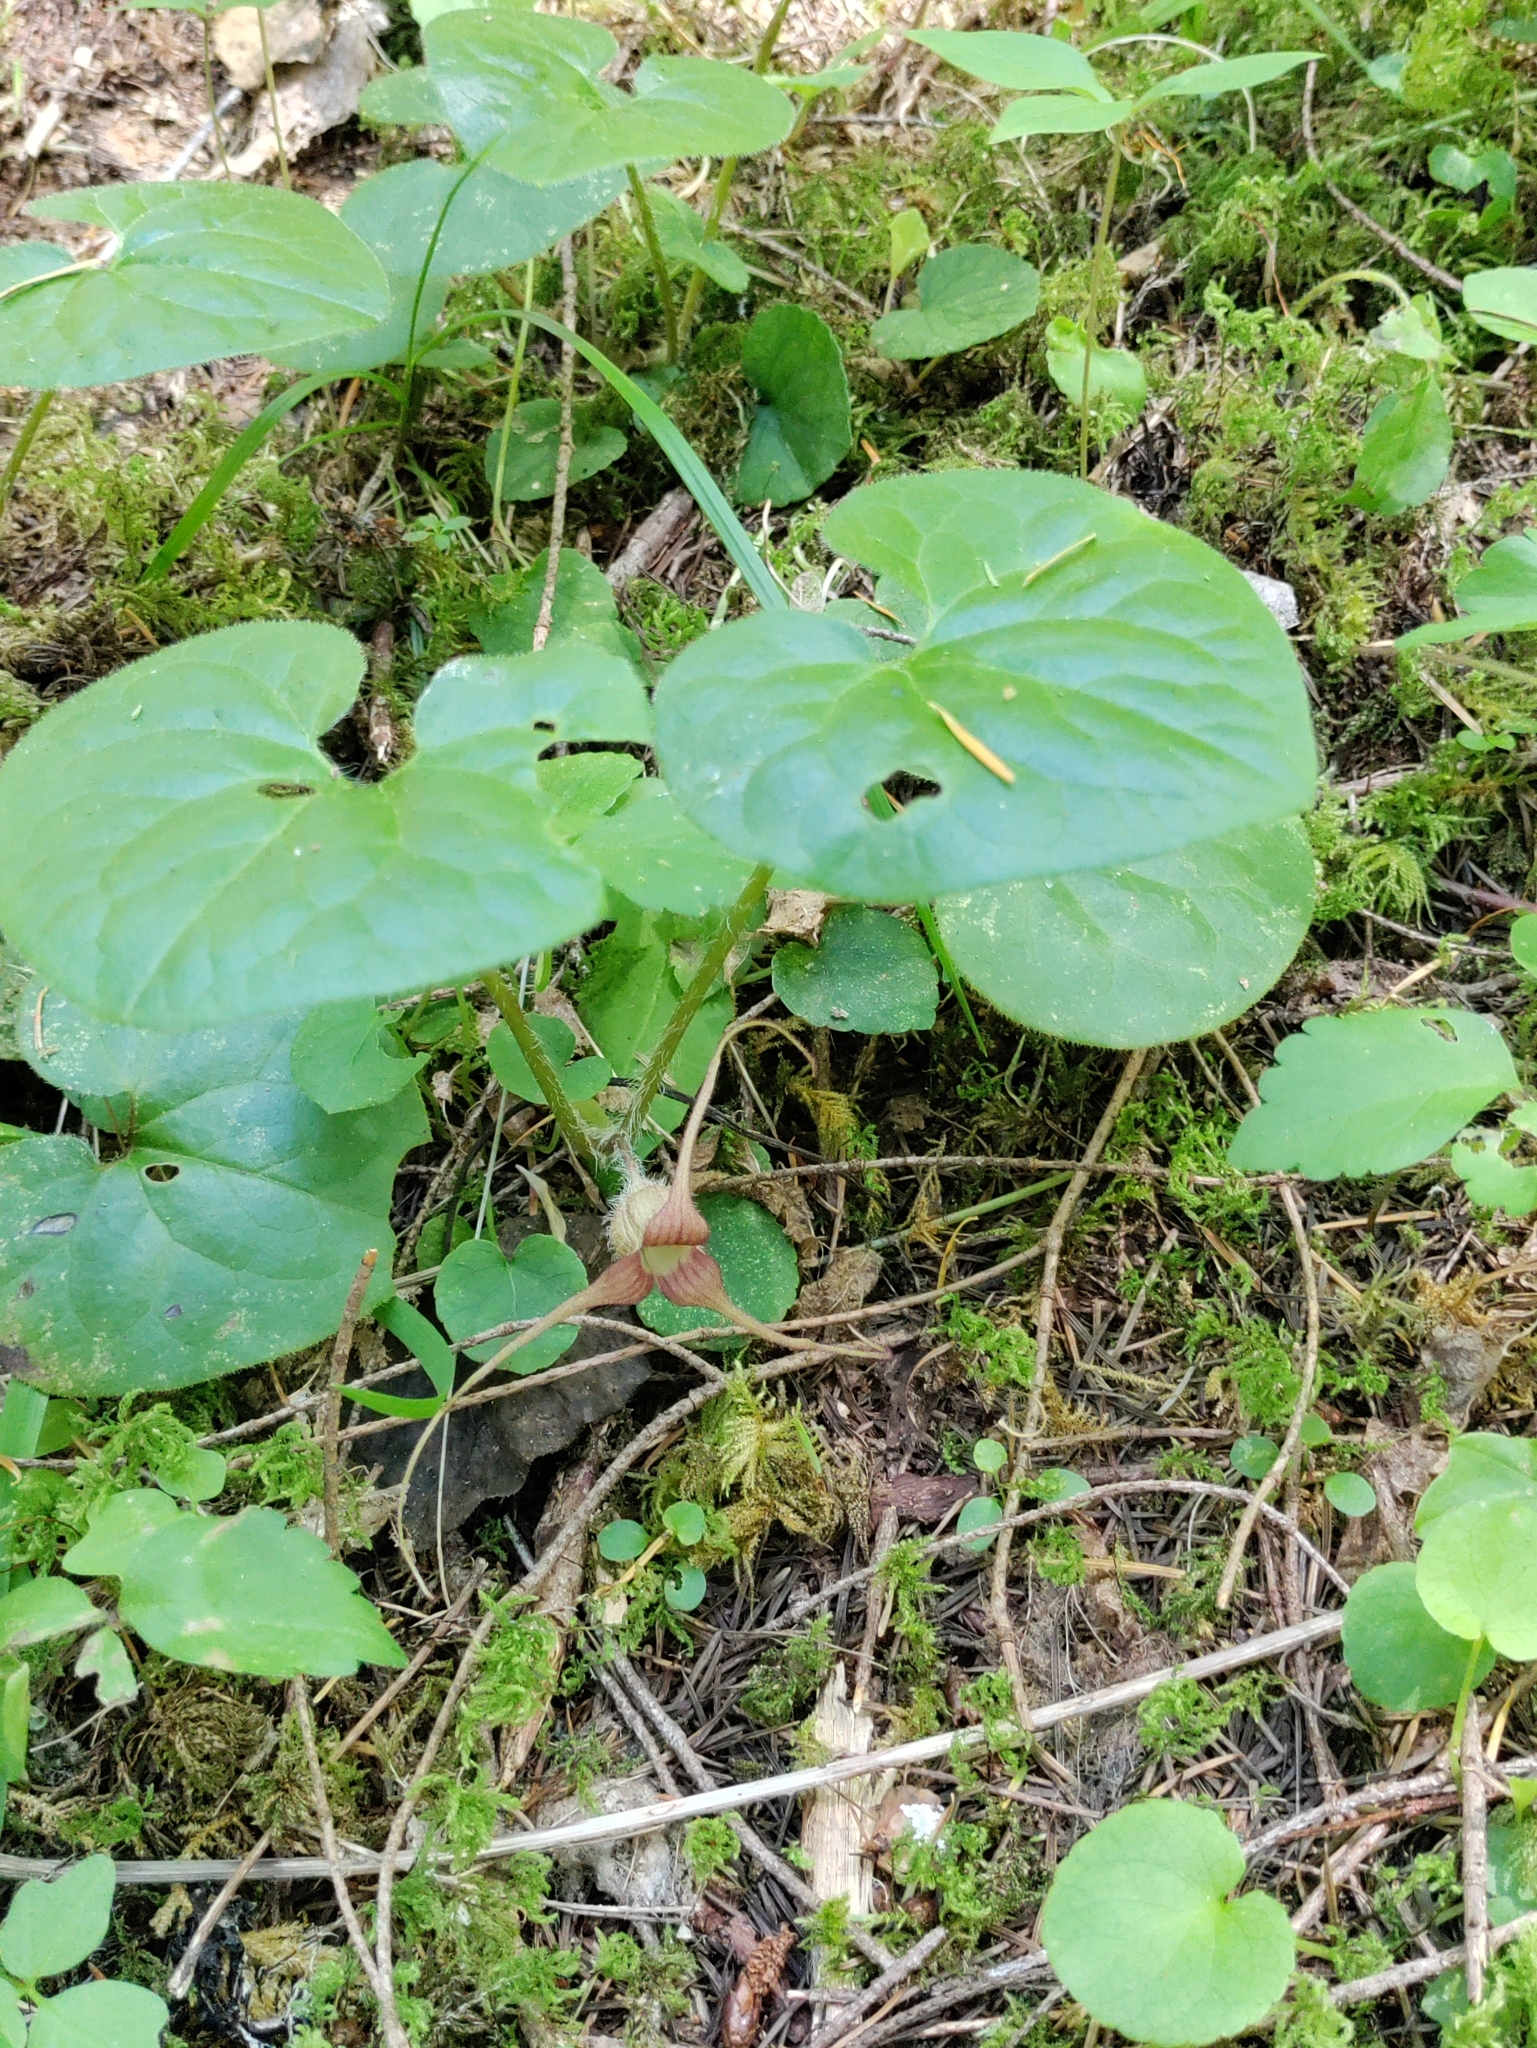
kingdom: Plantae
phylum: Tracheophyta
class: Magnoliopsida
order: Piperales
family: Aristolochiaceae
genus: Asarum
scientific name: Asarum caudatum
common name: Wild ginger
